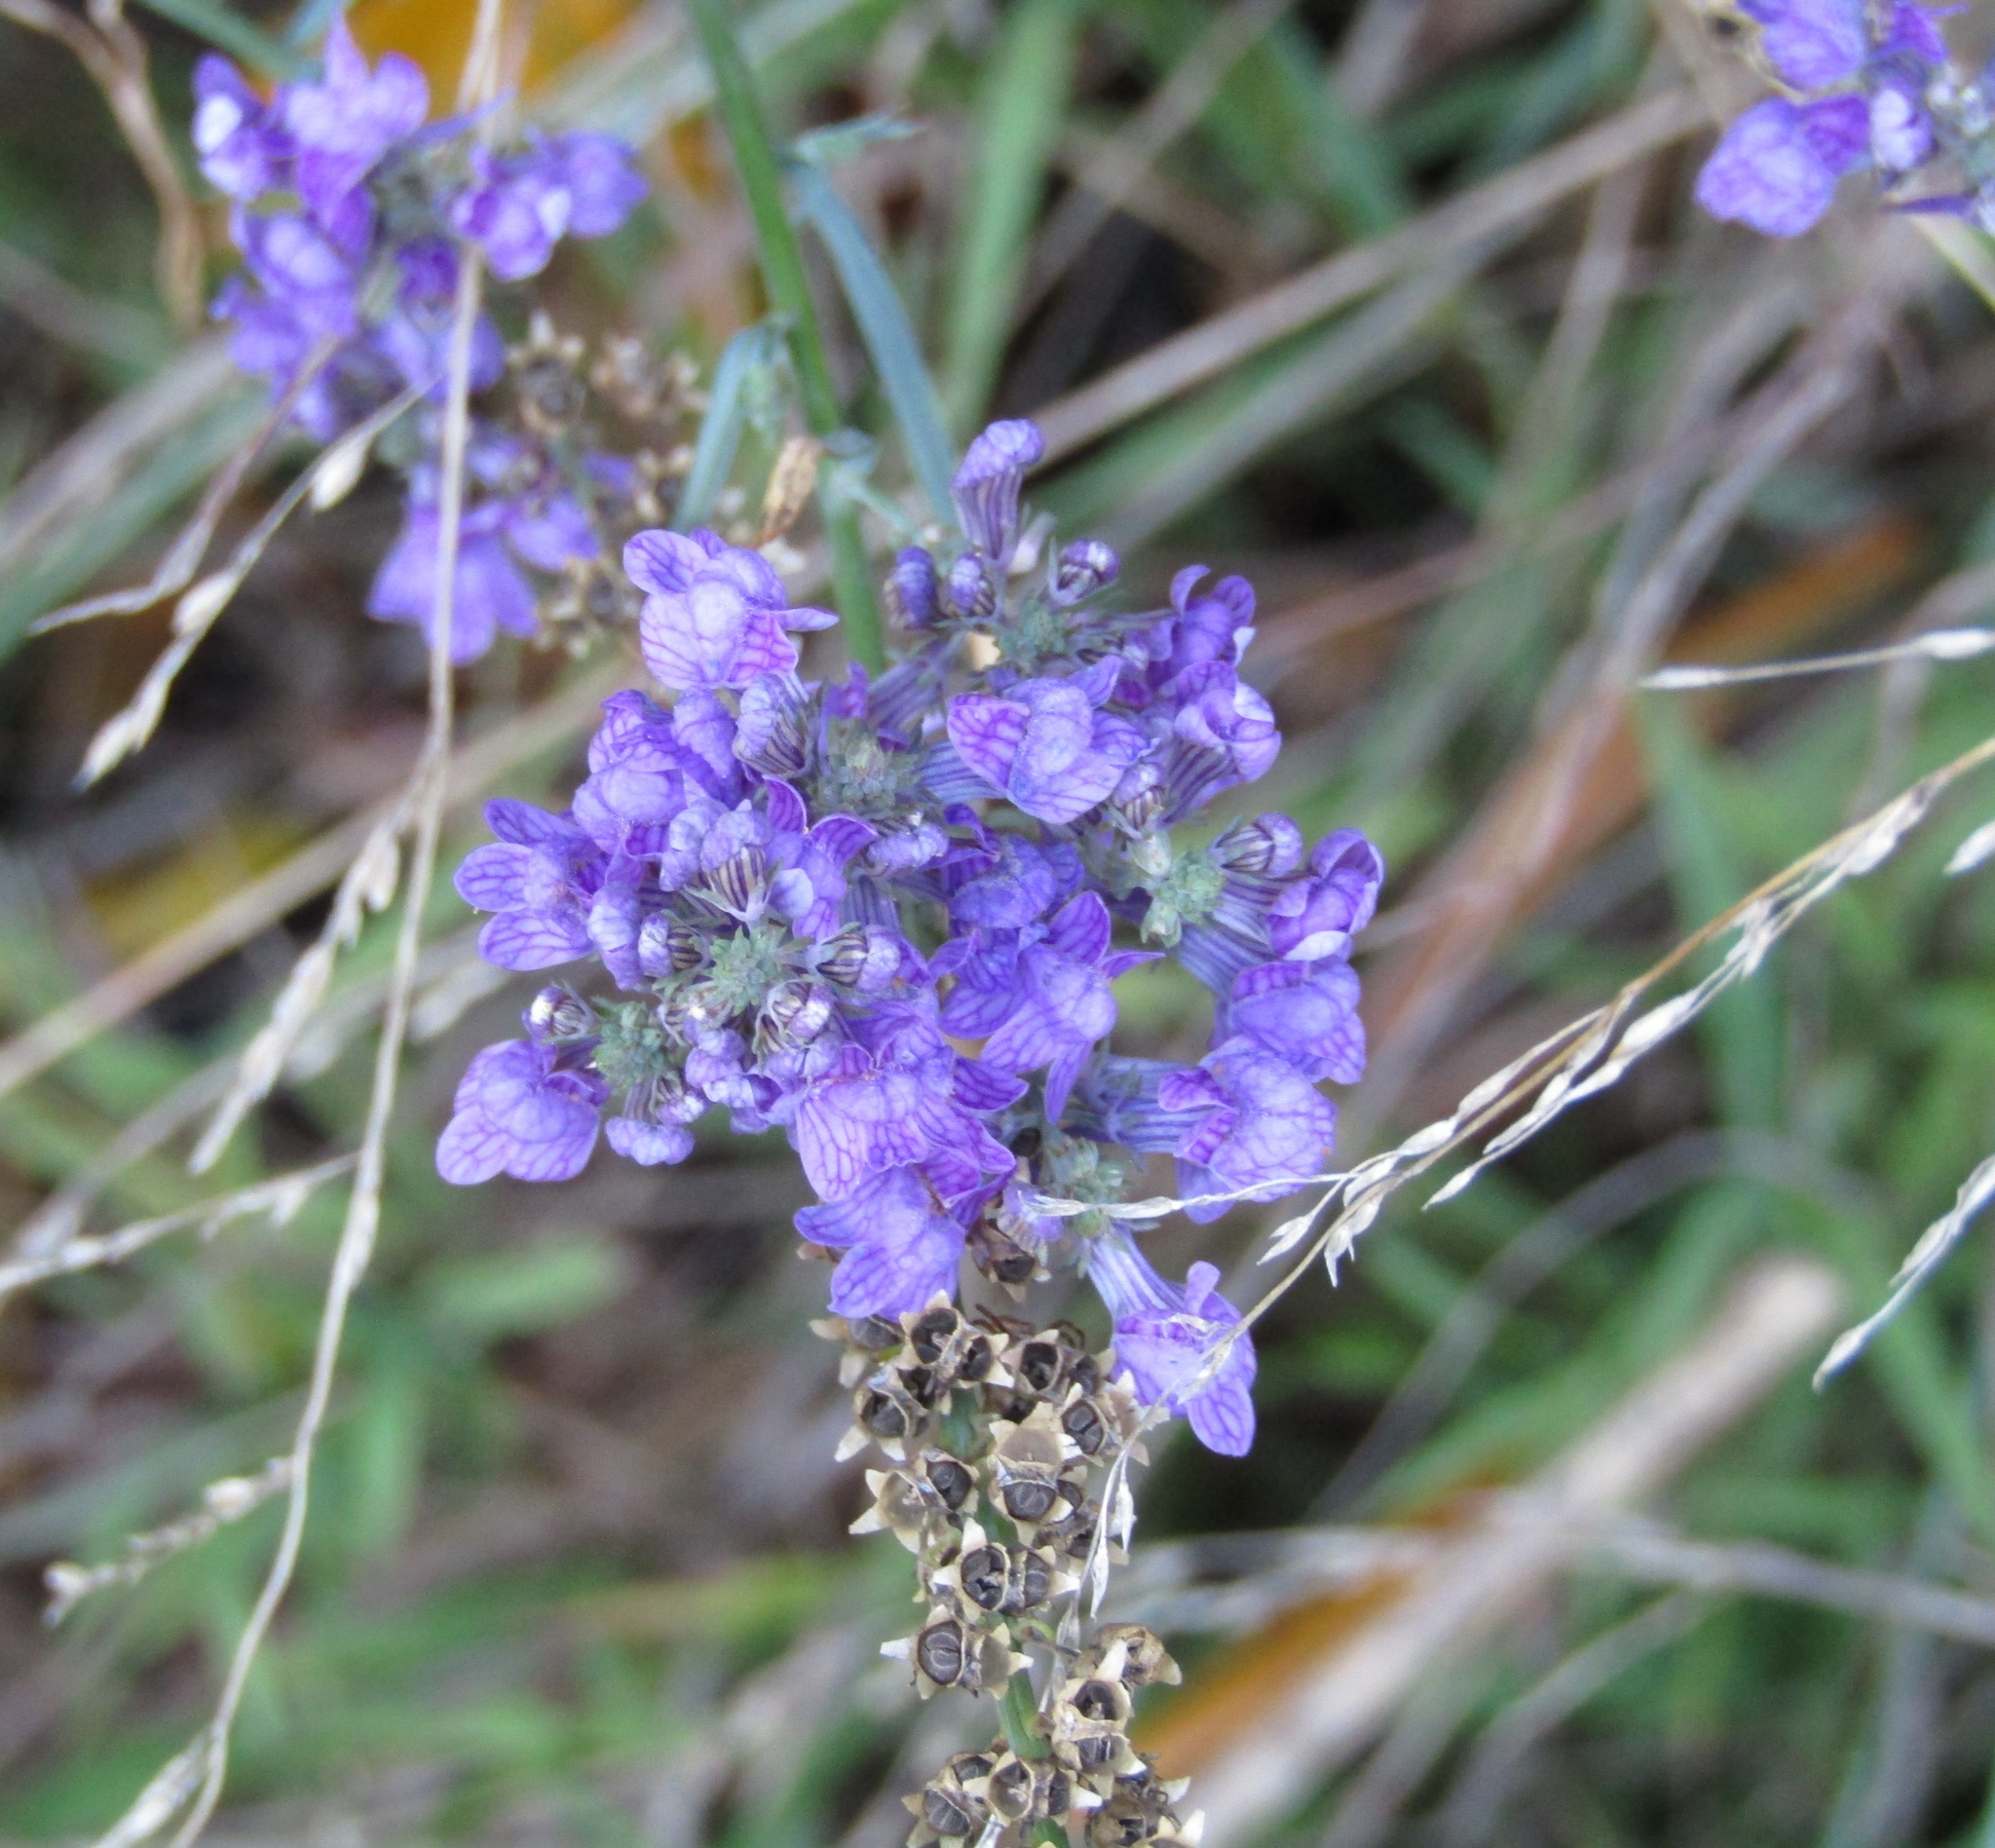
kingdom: Plantae
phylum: Tracheophyta
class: Magnoliopsida
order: Lamiales
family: Plantaginaceae
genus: Linaria
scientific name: Linaria purpurea
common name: Purple toadflax
